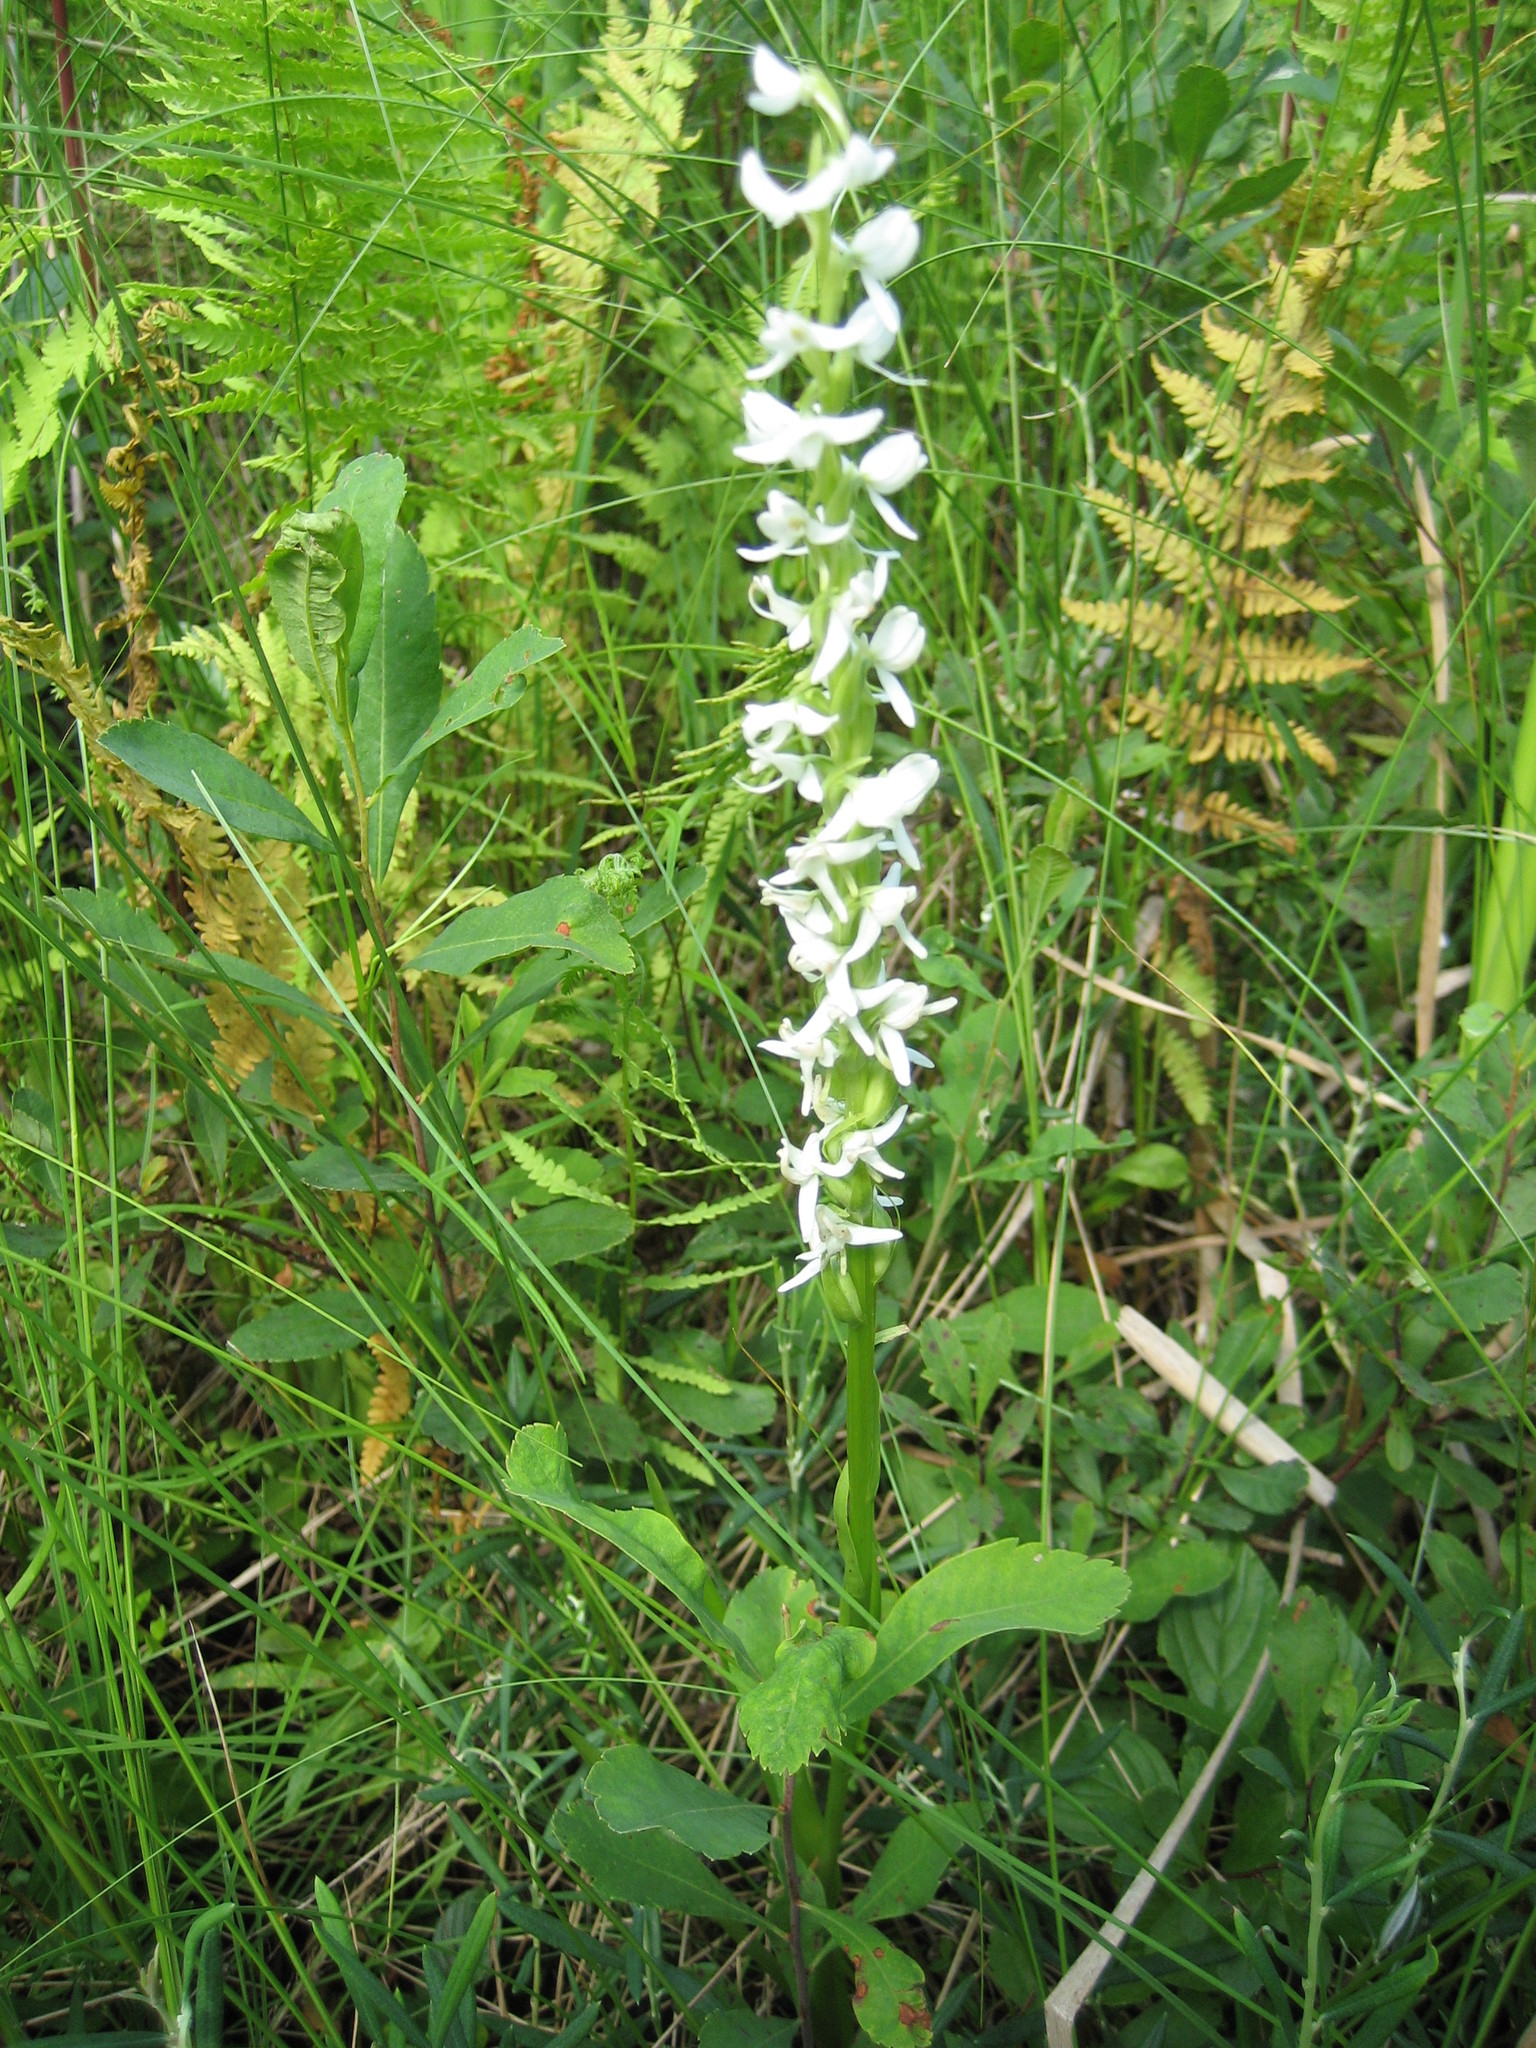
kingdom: Plantae
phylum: Tracheophyta
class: Liliopsida
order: Asparagales
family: Orchidaceae
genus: Platanthera
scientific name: Platanthera dilatata
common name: Bog candles
